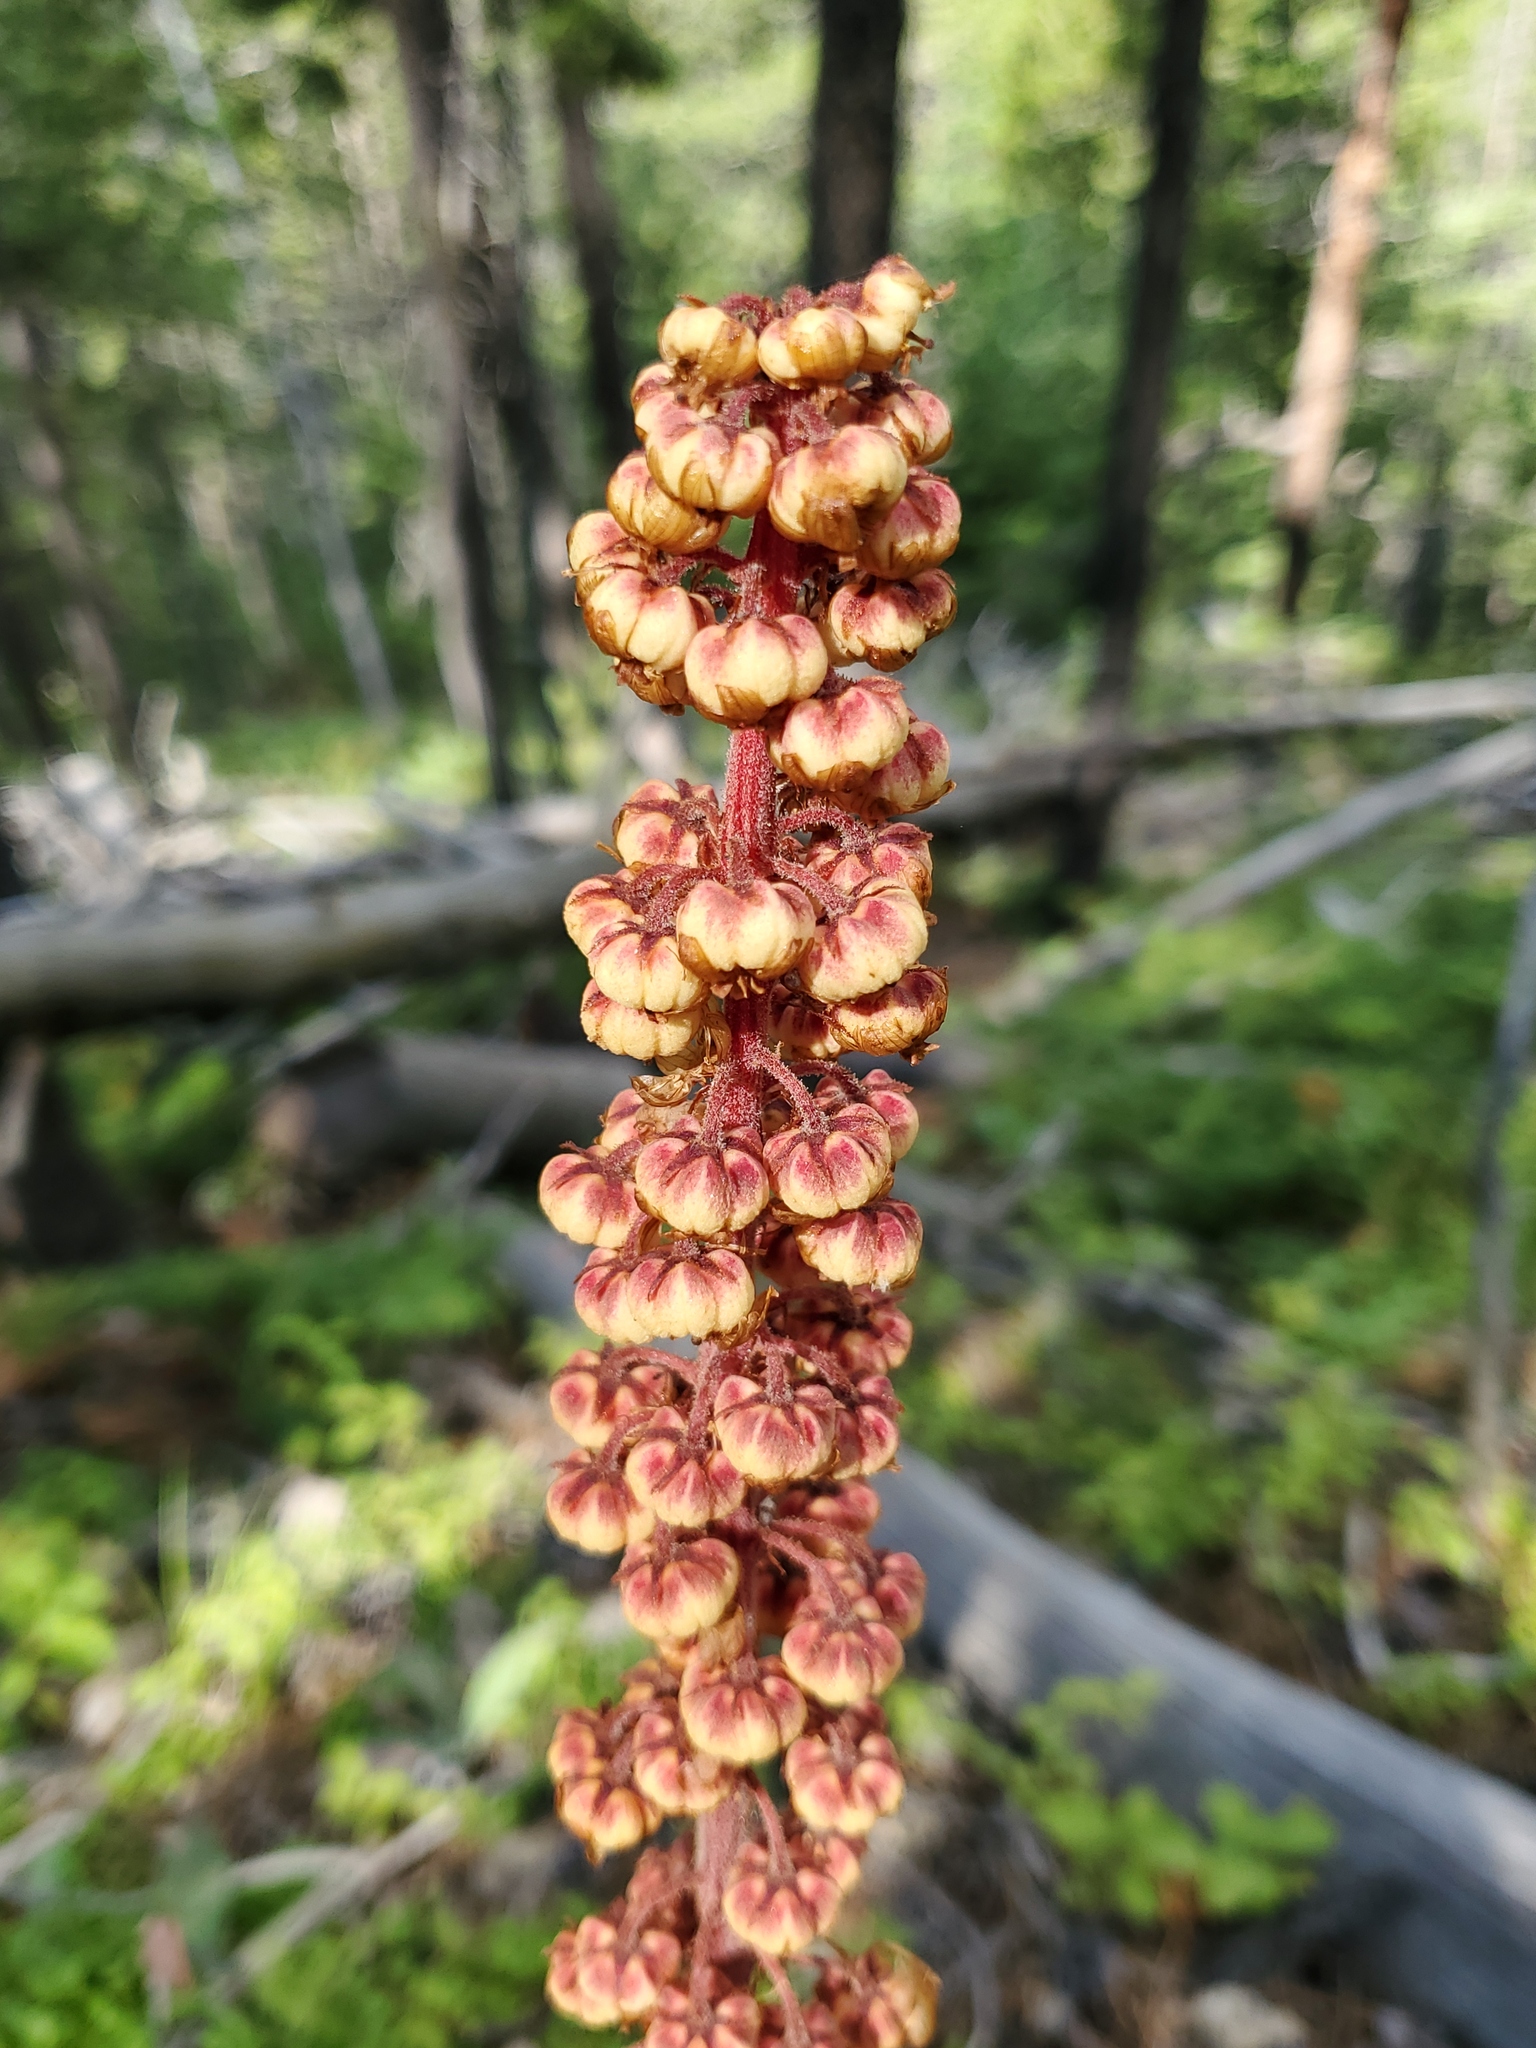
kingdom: Plantae
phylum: Tracheophyta
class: Magnoliopsida
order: Ericales
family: Ericaceae
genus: Pterospora
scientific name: Pterospora andromedea
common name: Giant bird's-nest
